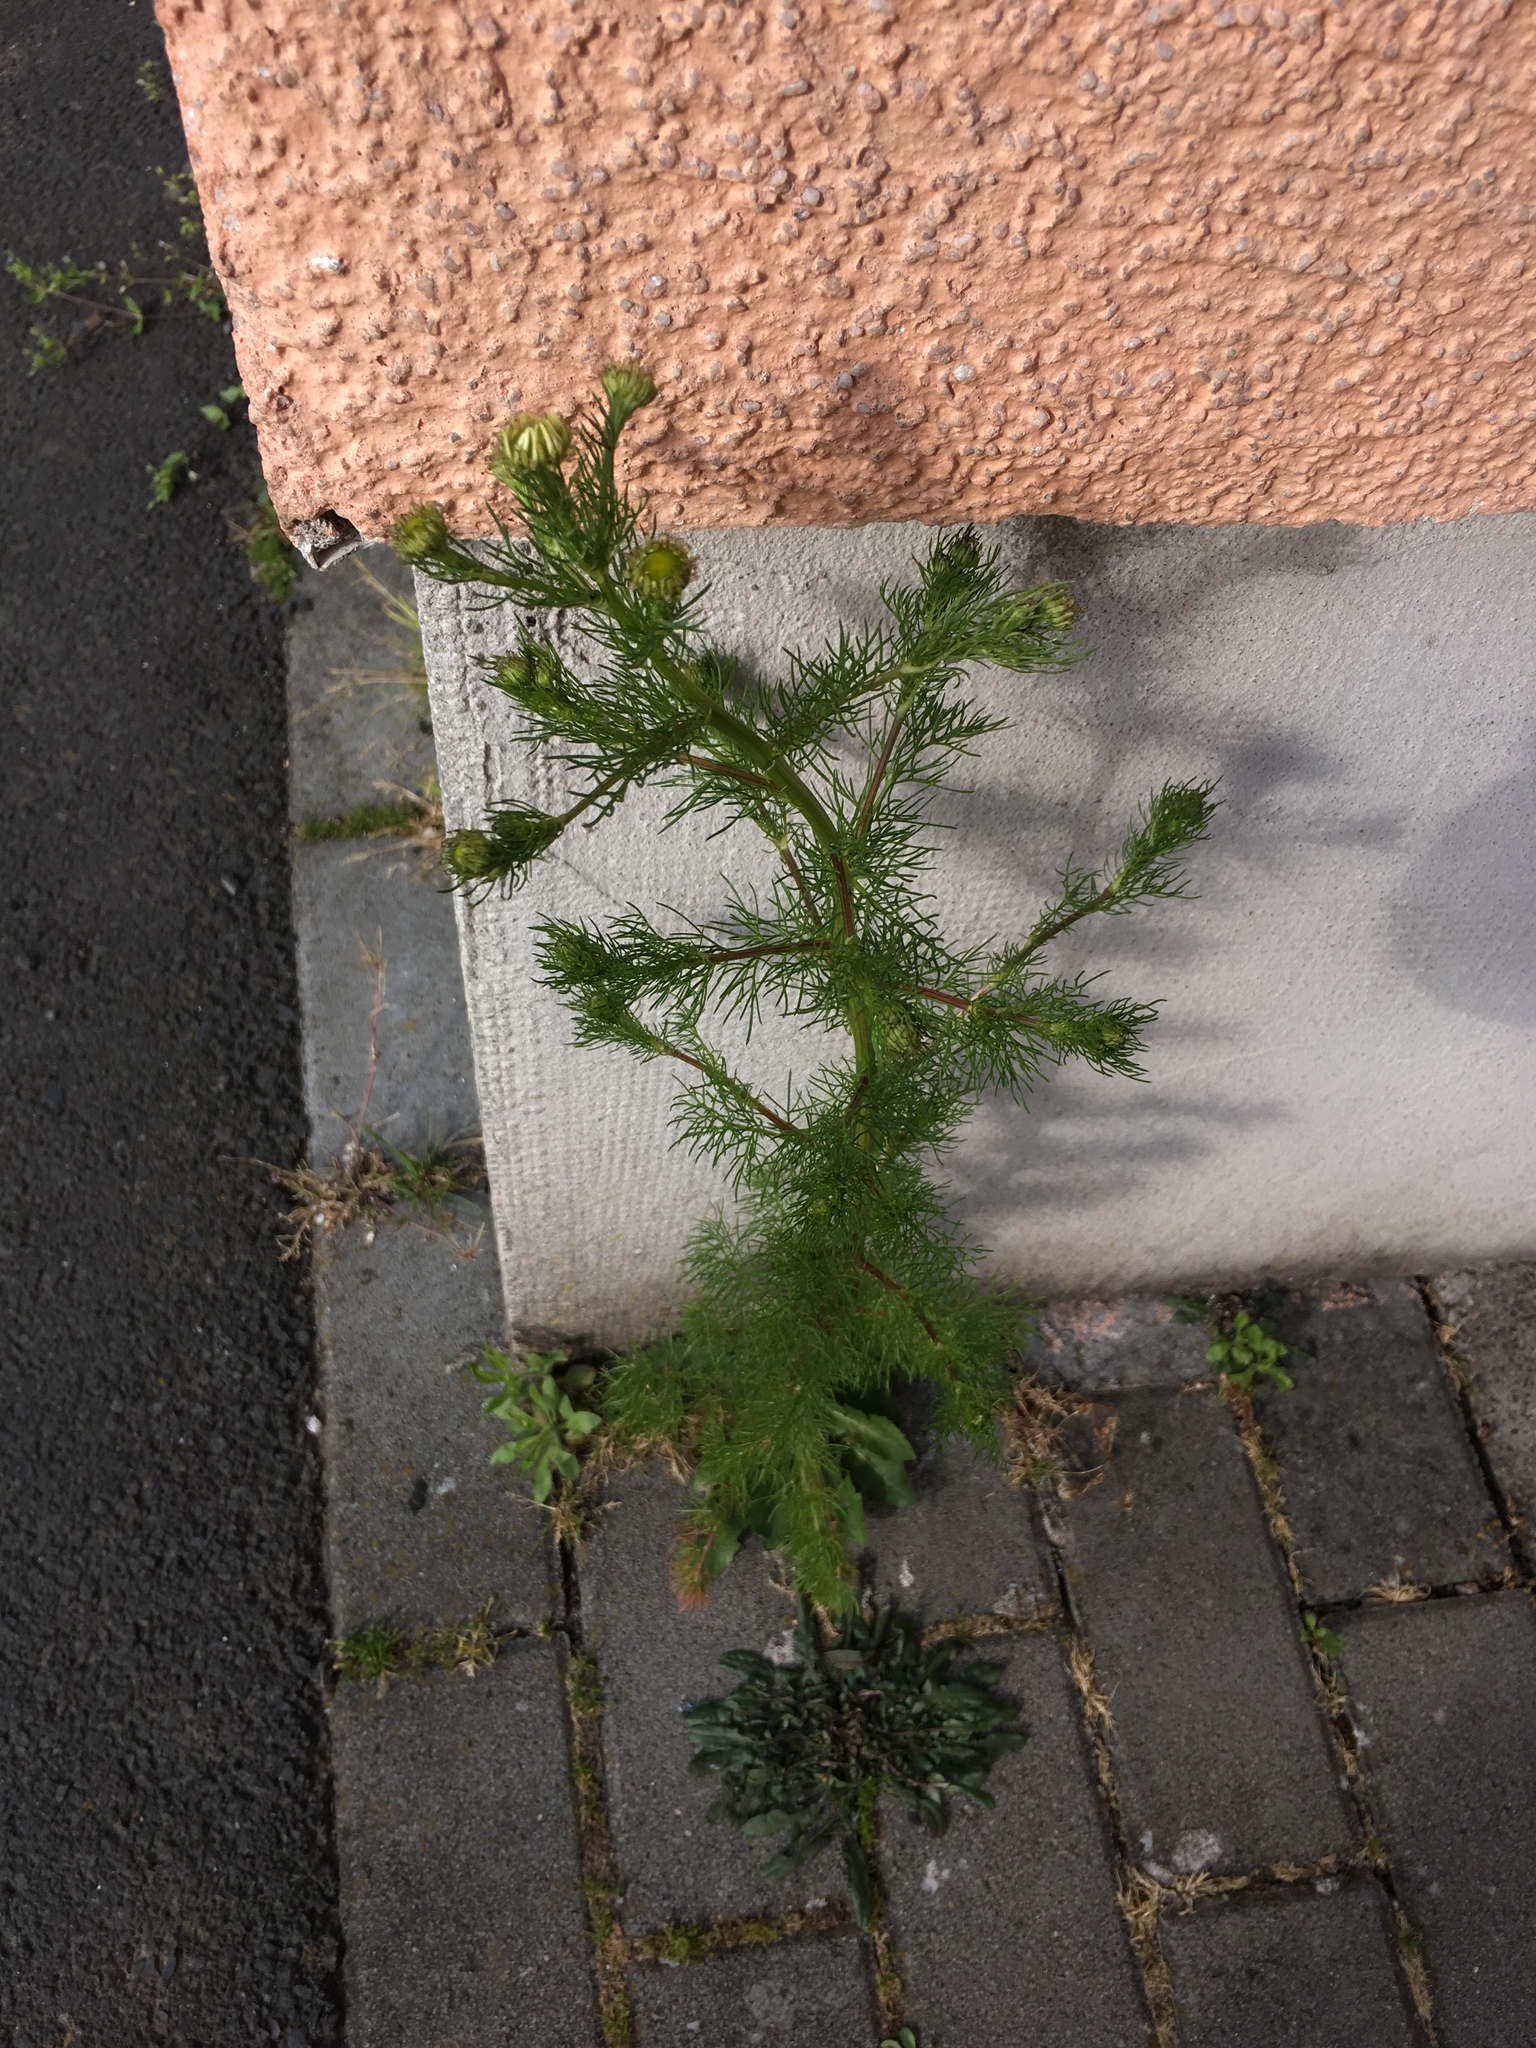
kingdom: Plantae
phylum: Tracheophyta
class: Magnoliopsida
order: Asterales
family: Asteraceae
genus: Matricaria
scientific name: Matricaria chamomilla
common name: Scented mayweed
